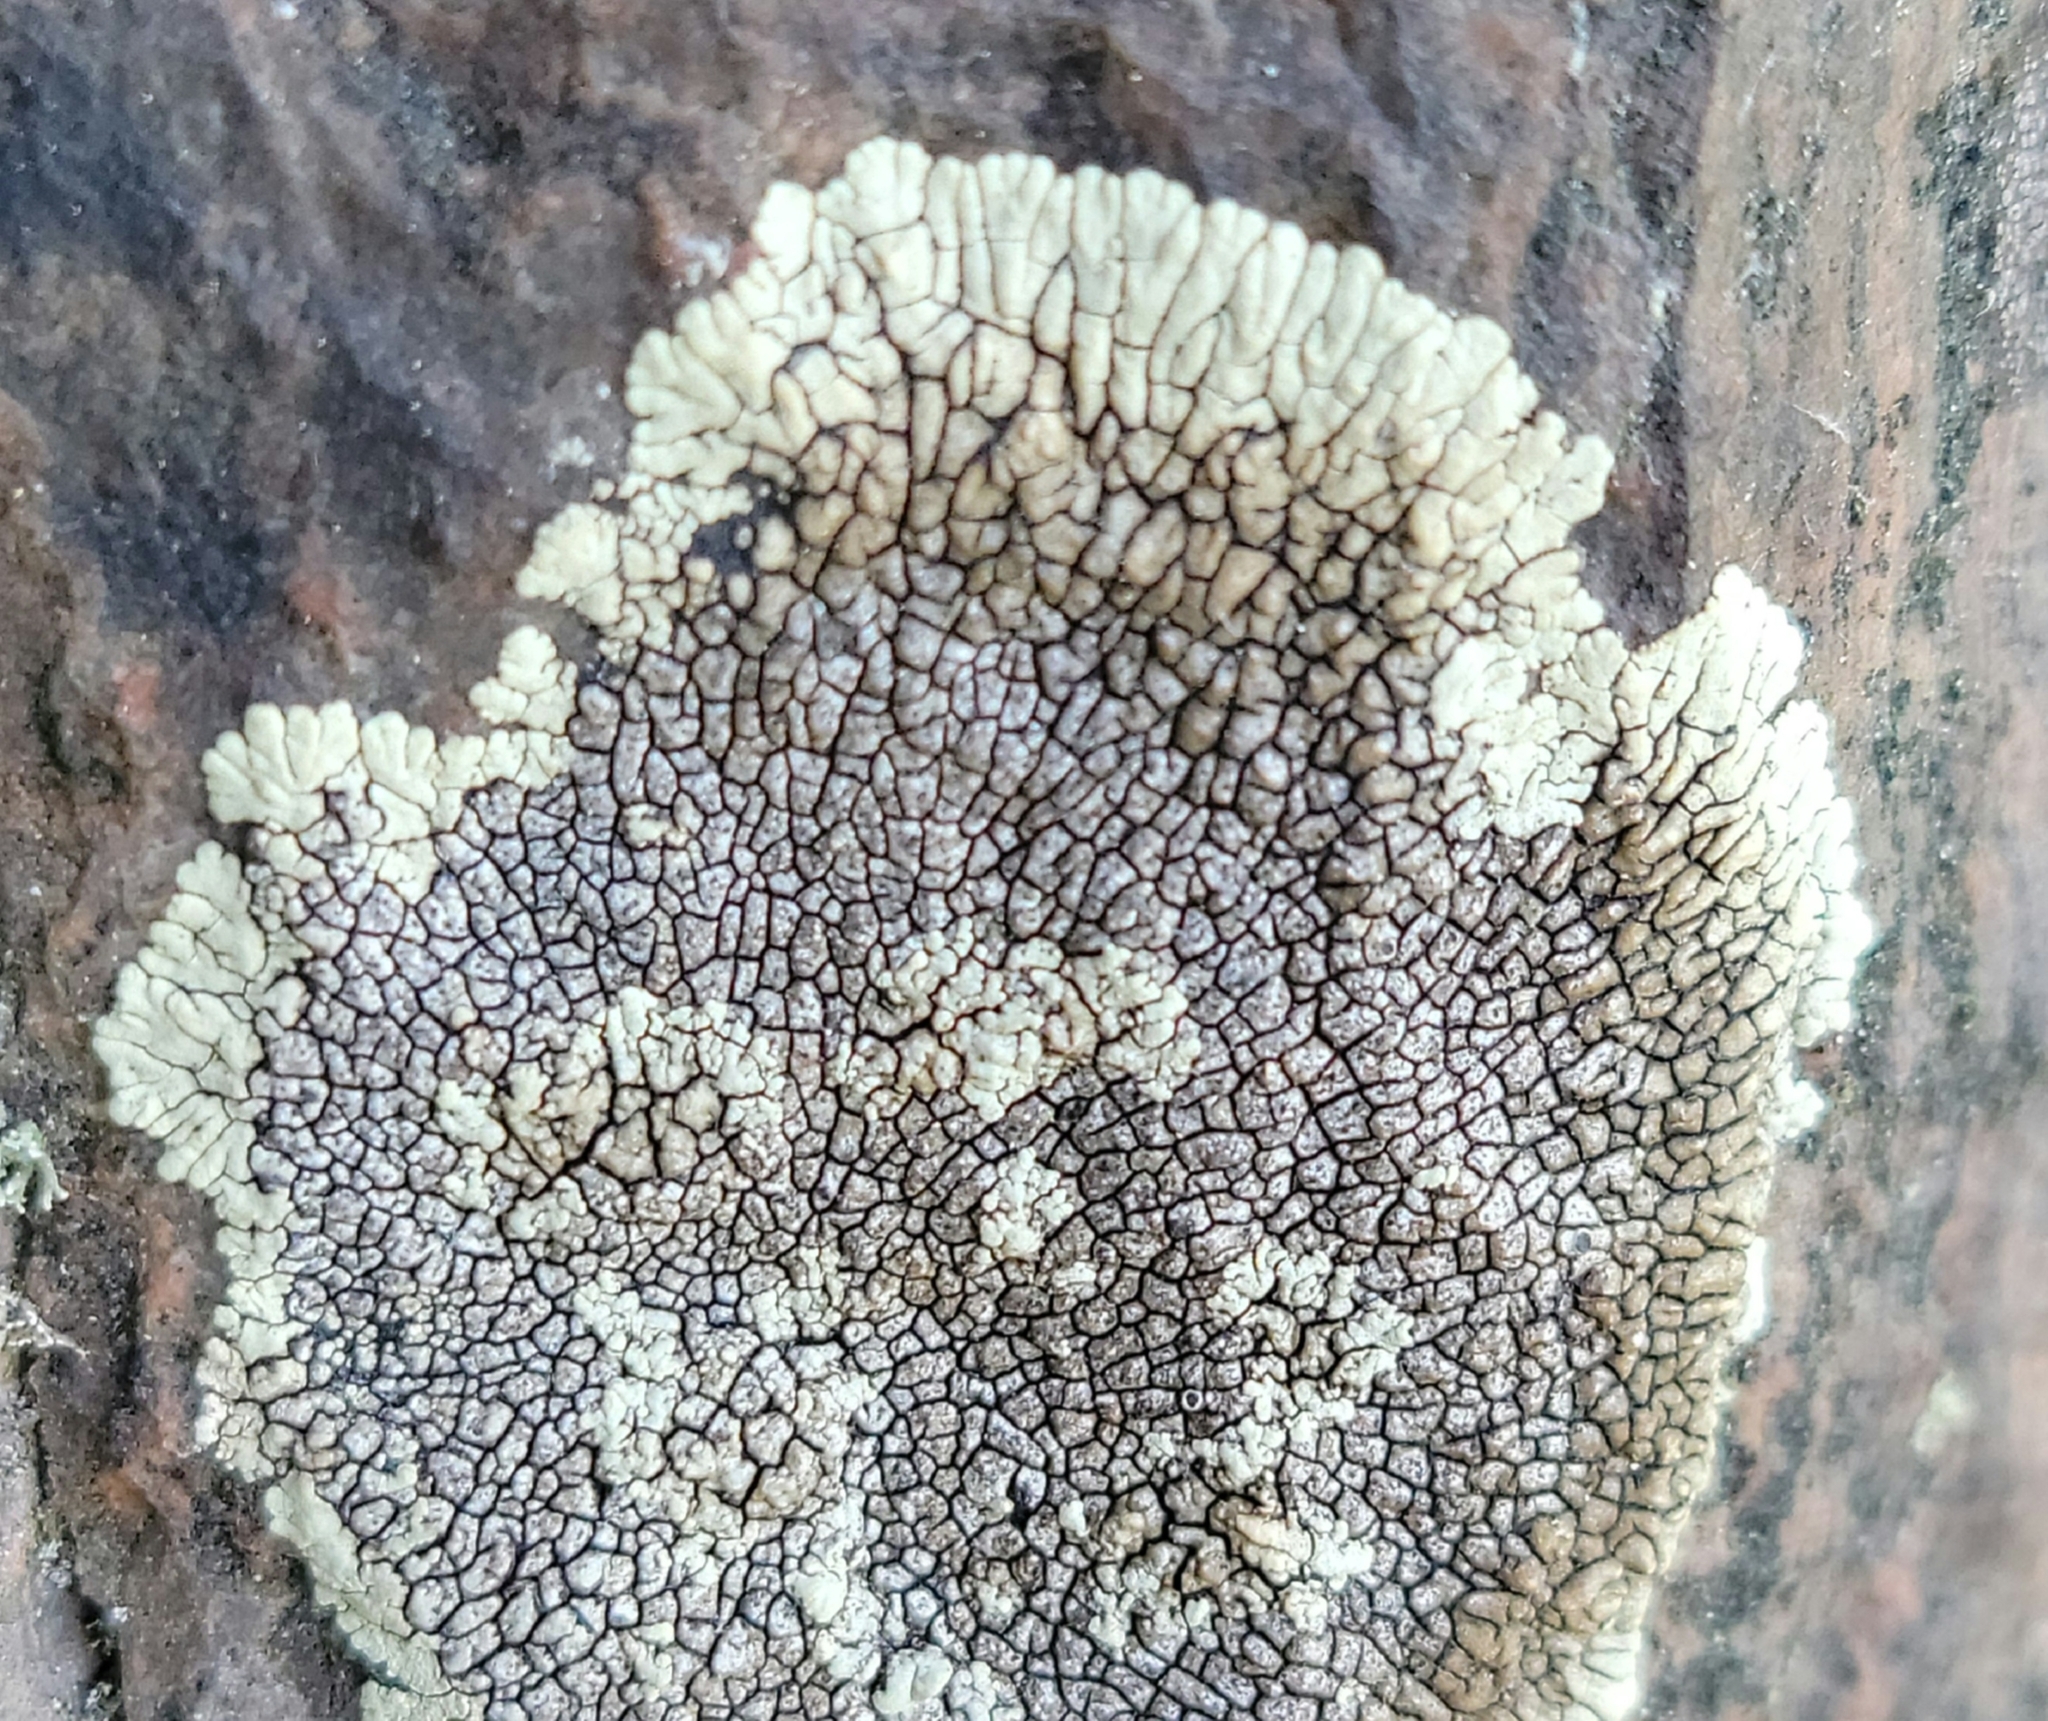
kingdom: Fungi
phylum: Ascomycota
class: Lecanoromycetes
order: Caliciales
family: Caliciaceae
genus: Dimelaena
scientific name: Dimelaena oreina
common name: Golden moonglow lichen
